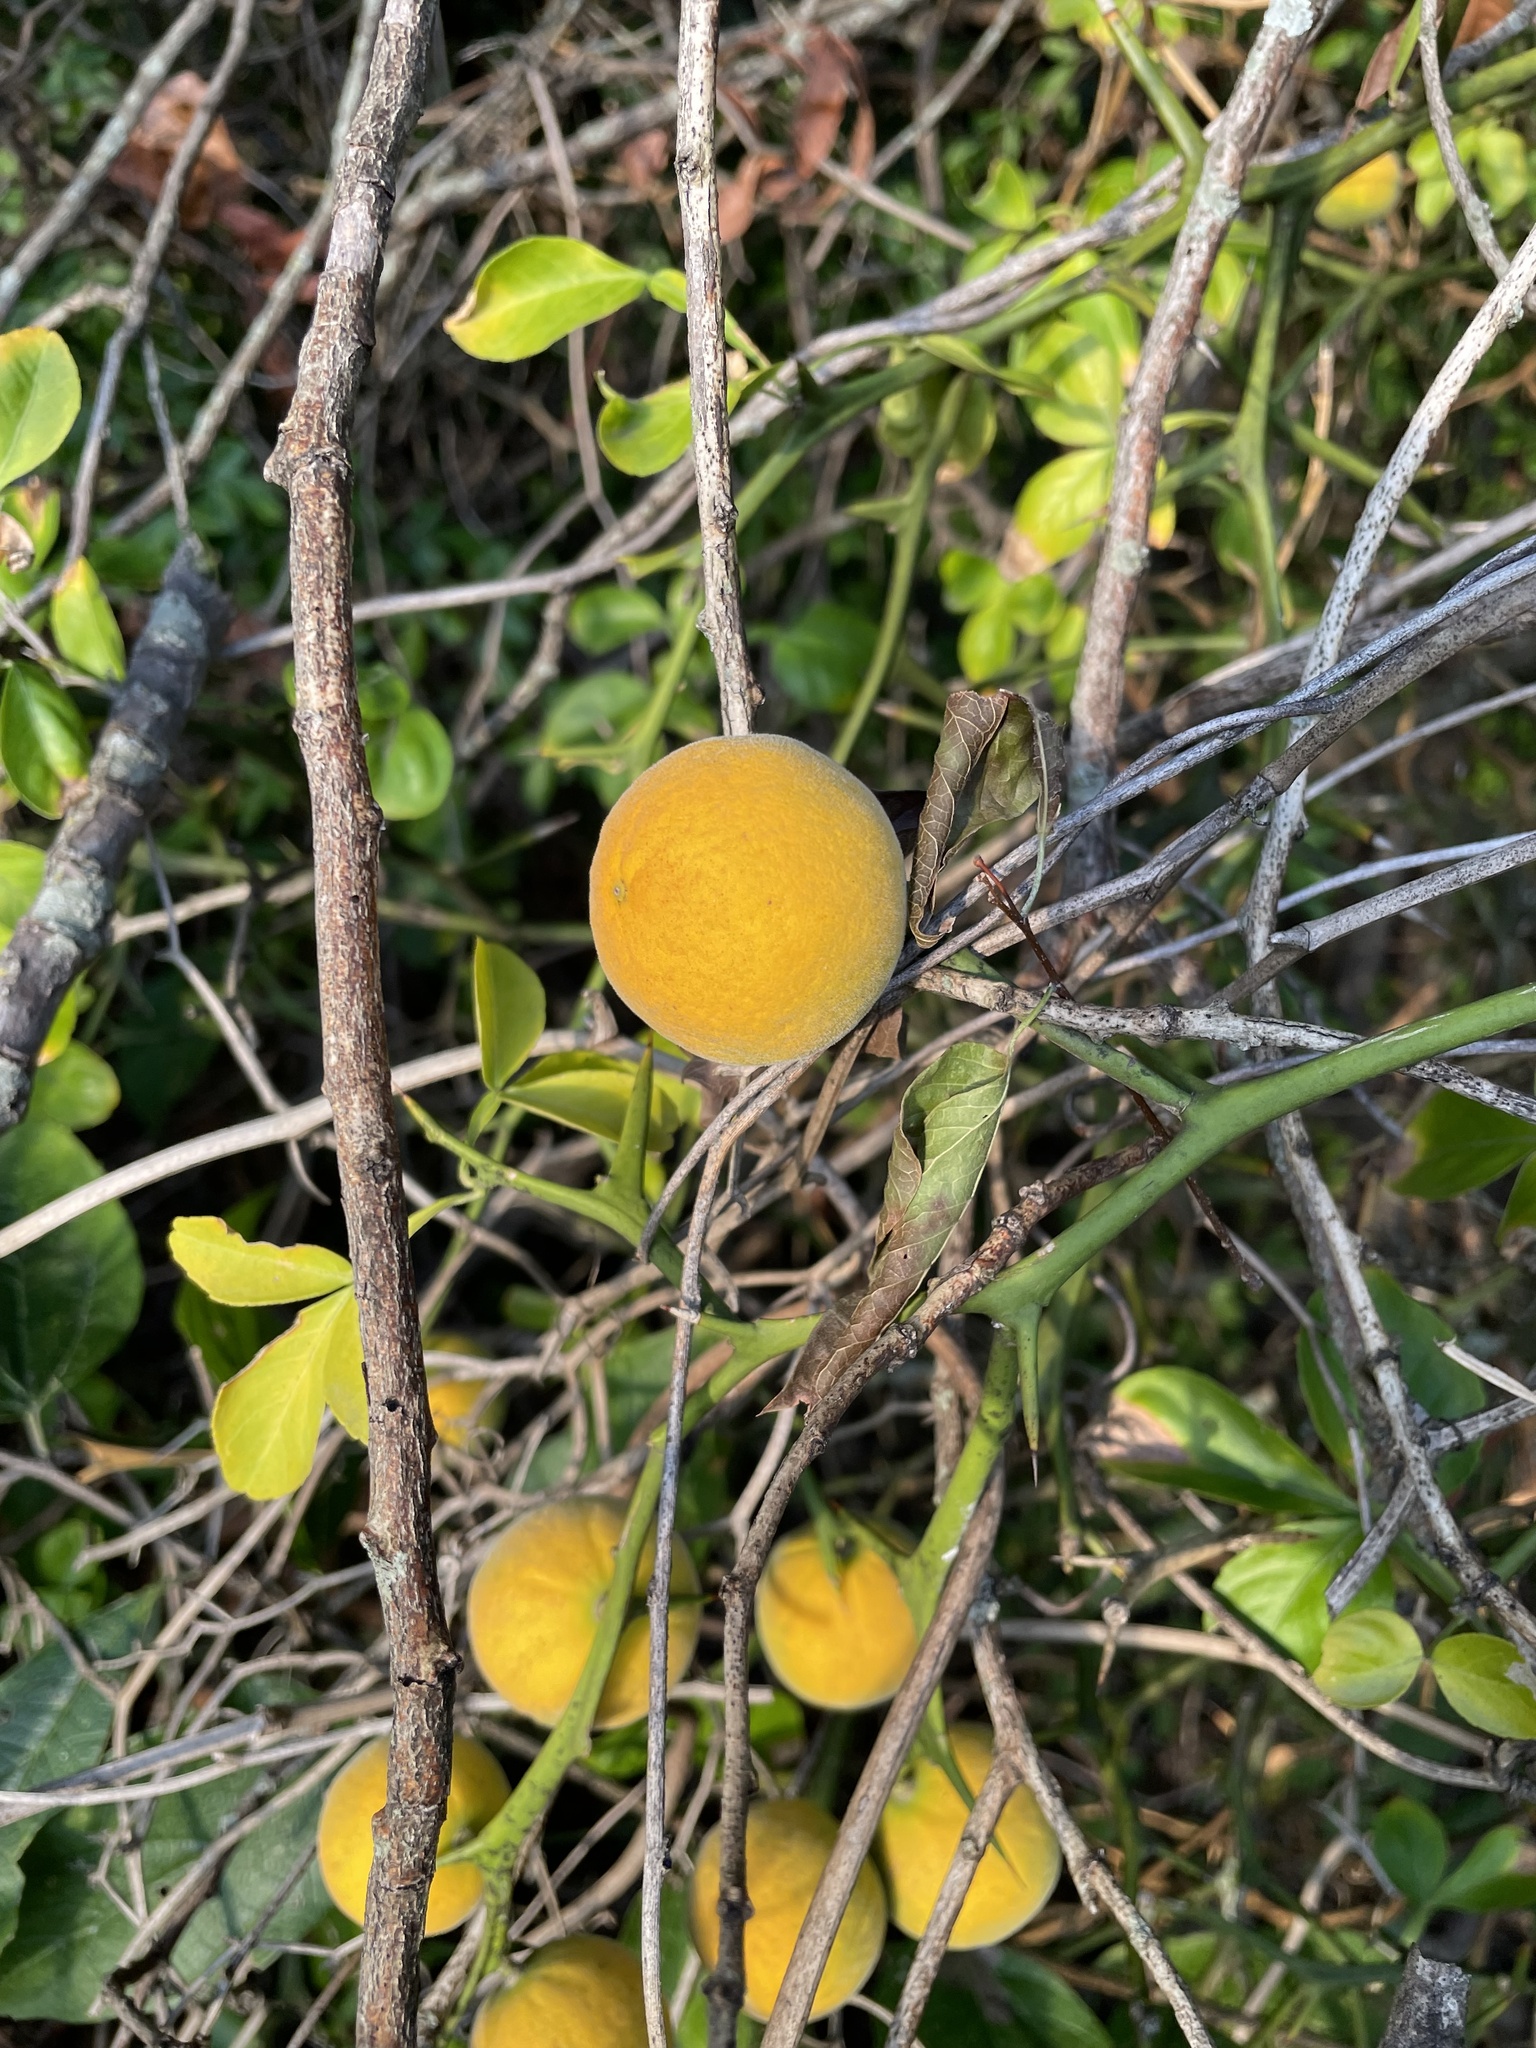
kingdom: Plantae
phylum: Tracheophyta
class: Magnoliopsida
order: Sapindales
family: Rutaceae
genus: Citrus
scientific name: Citrus trifoliata
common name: Japanese bitter-orange
